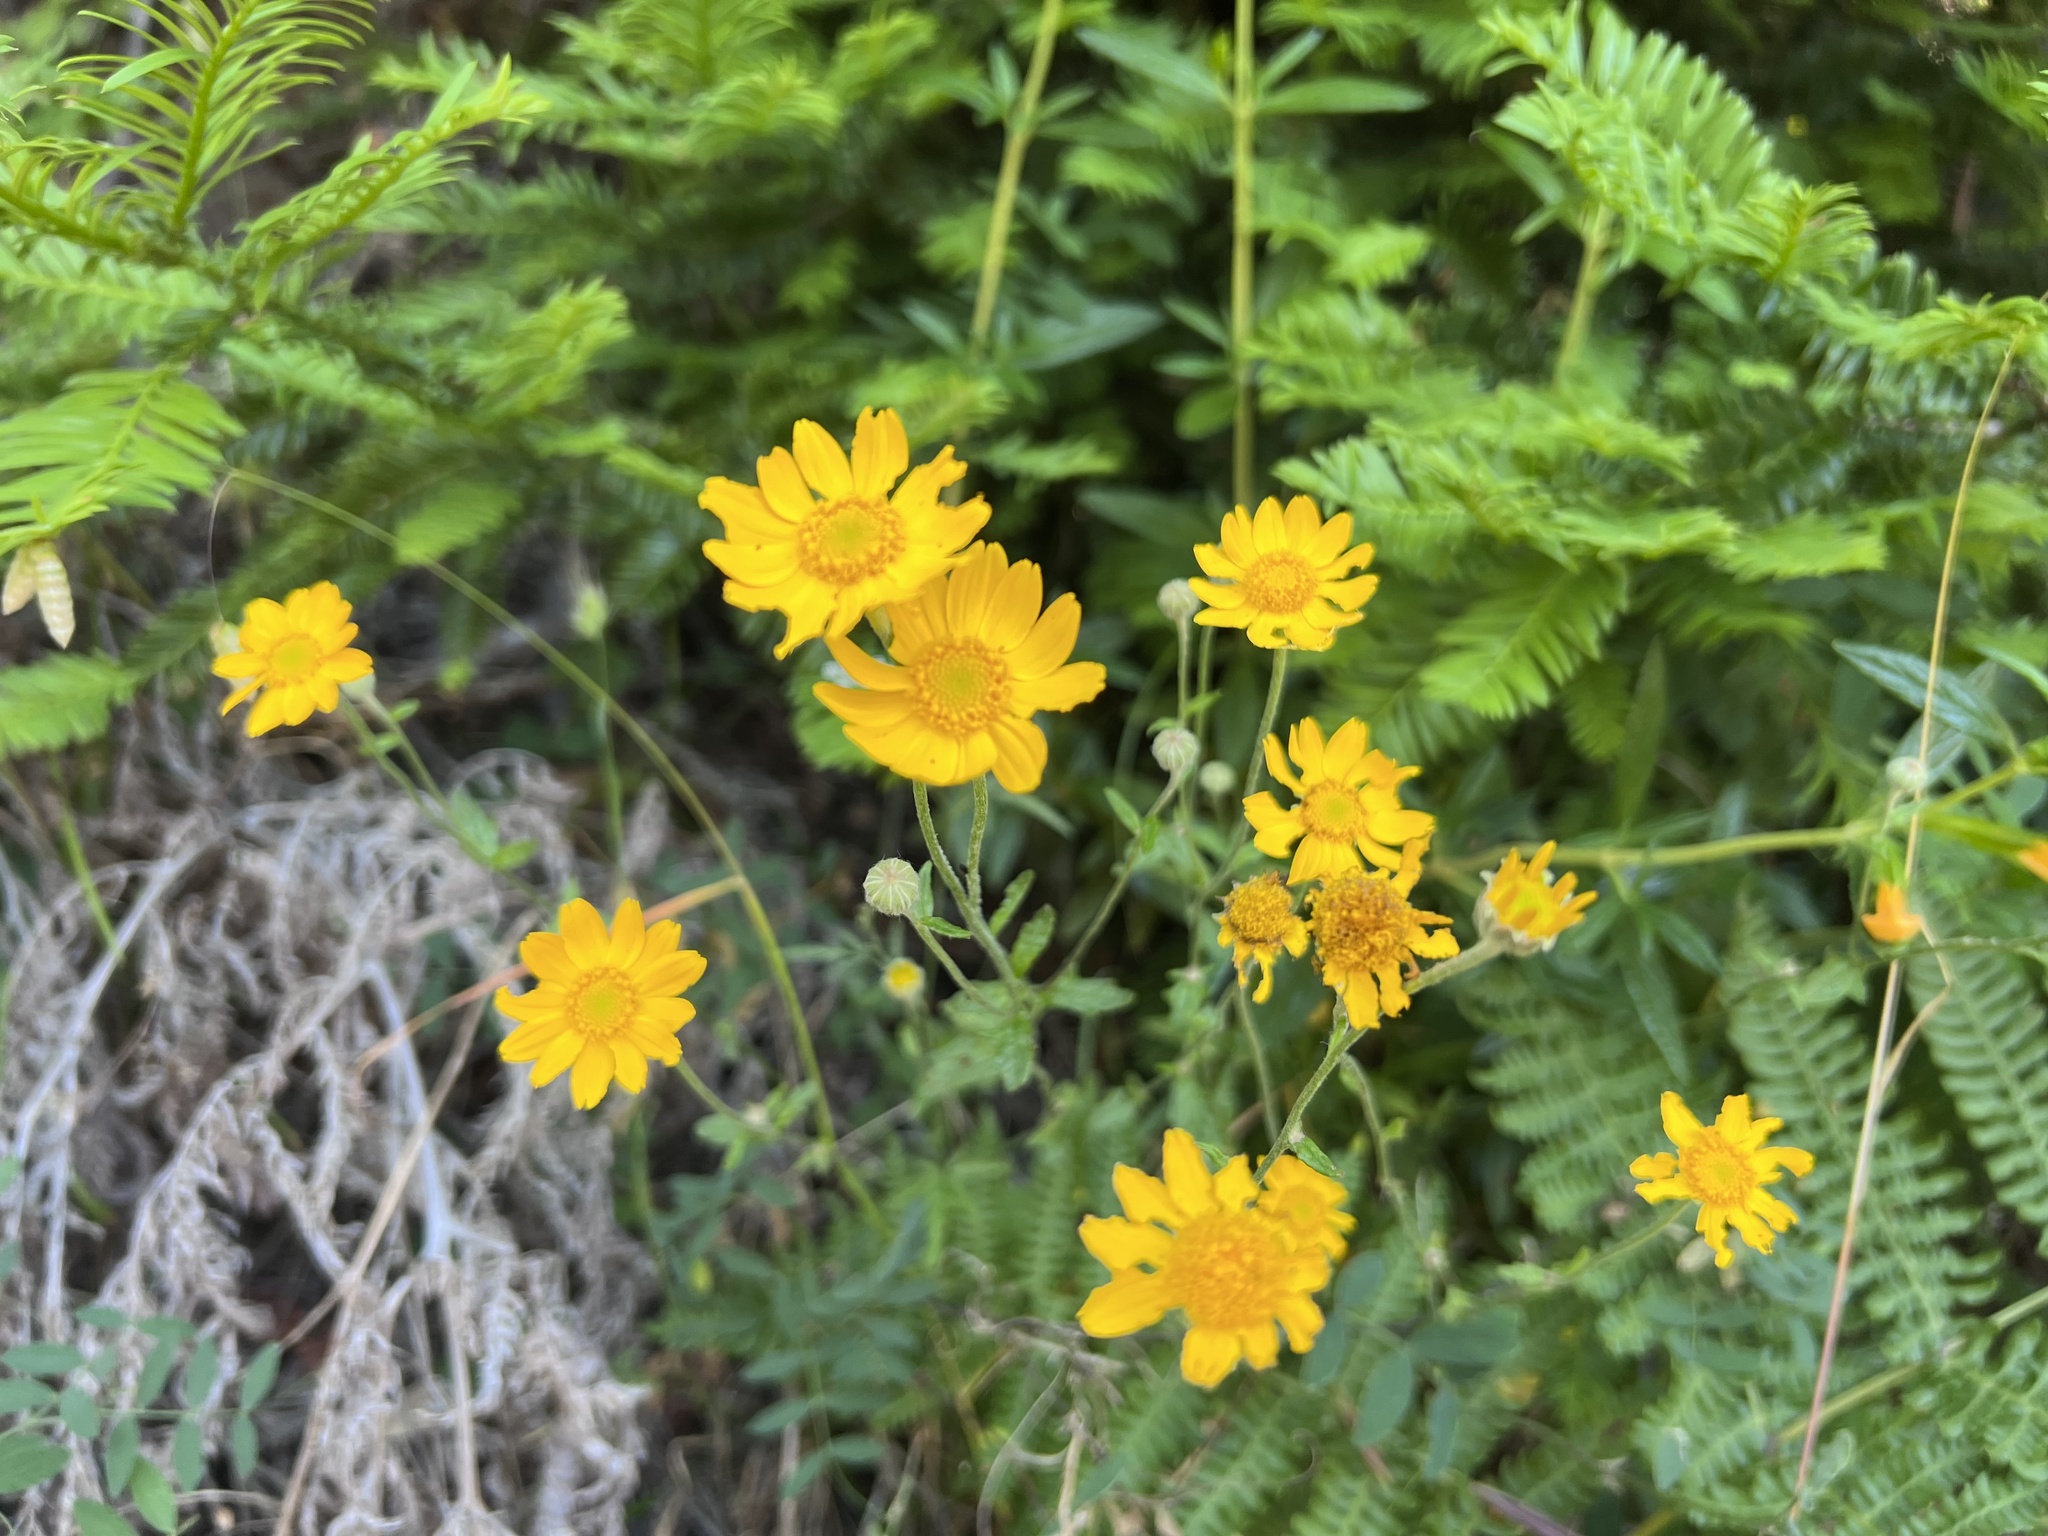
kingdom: Plantae
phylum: Tracheophyta
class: Magnoliopsida
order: Asterales
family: Asteraceae
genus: Eriophyllum
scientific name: Eriophyllum lanatum
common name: Common woolly-sunflower
